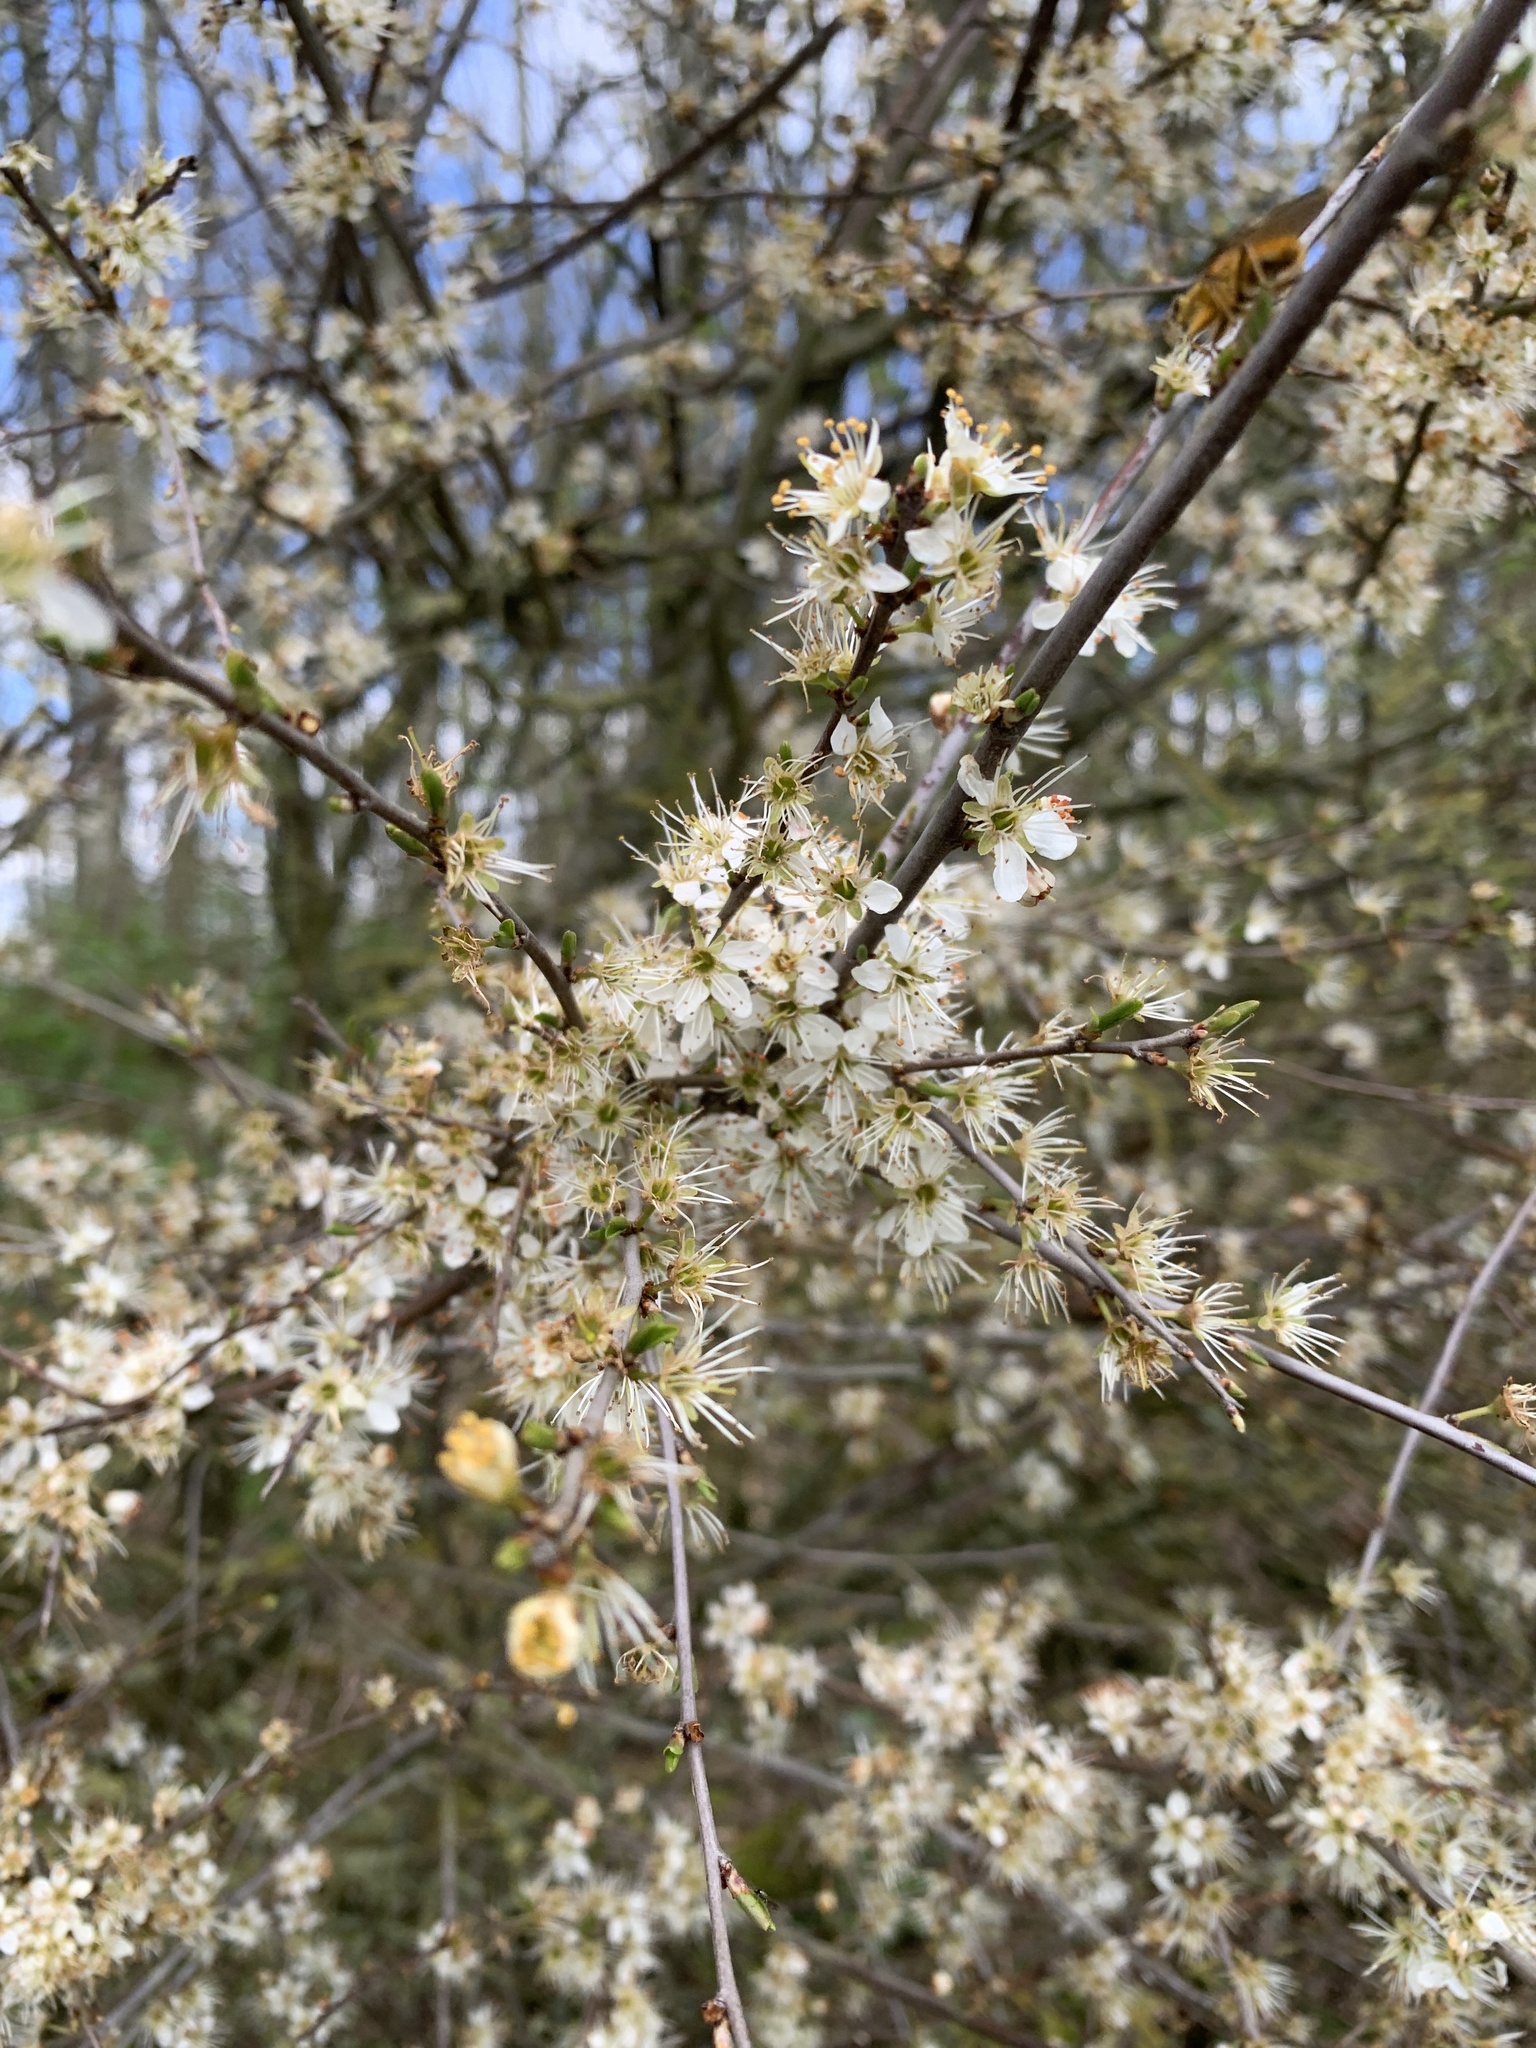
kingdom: Plantae
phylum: Tracheophyta
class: Magnoliopsida
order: Rosales
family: Rosaceae
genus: Prunus
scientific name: Prunus spinosa
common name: Blackthorn
